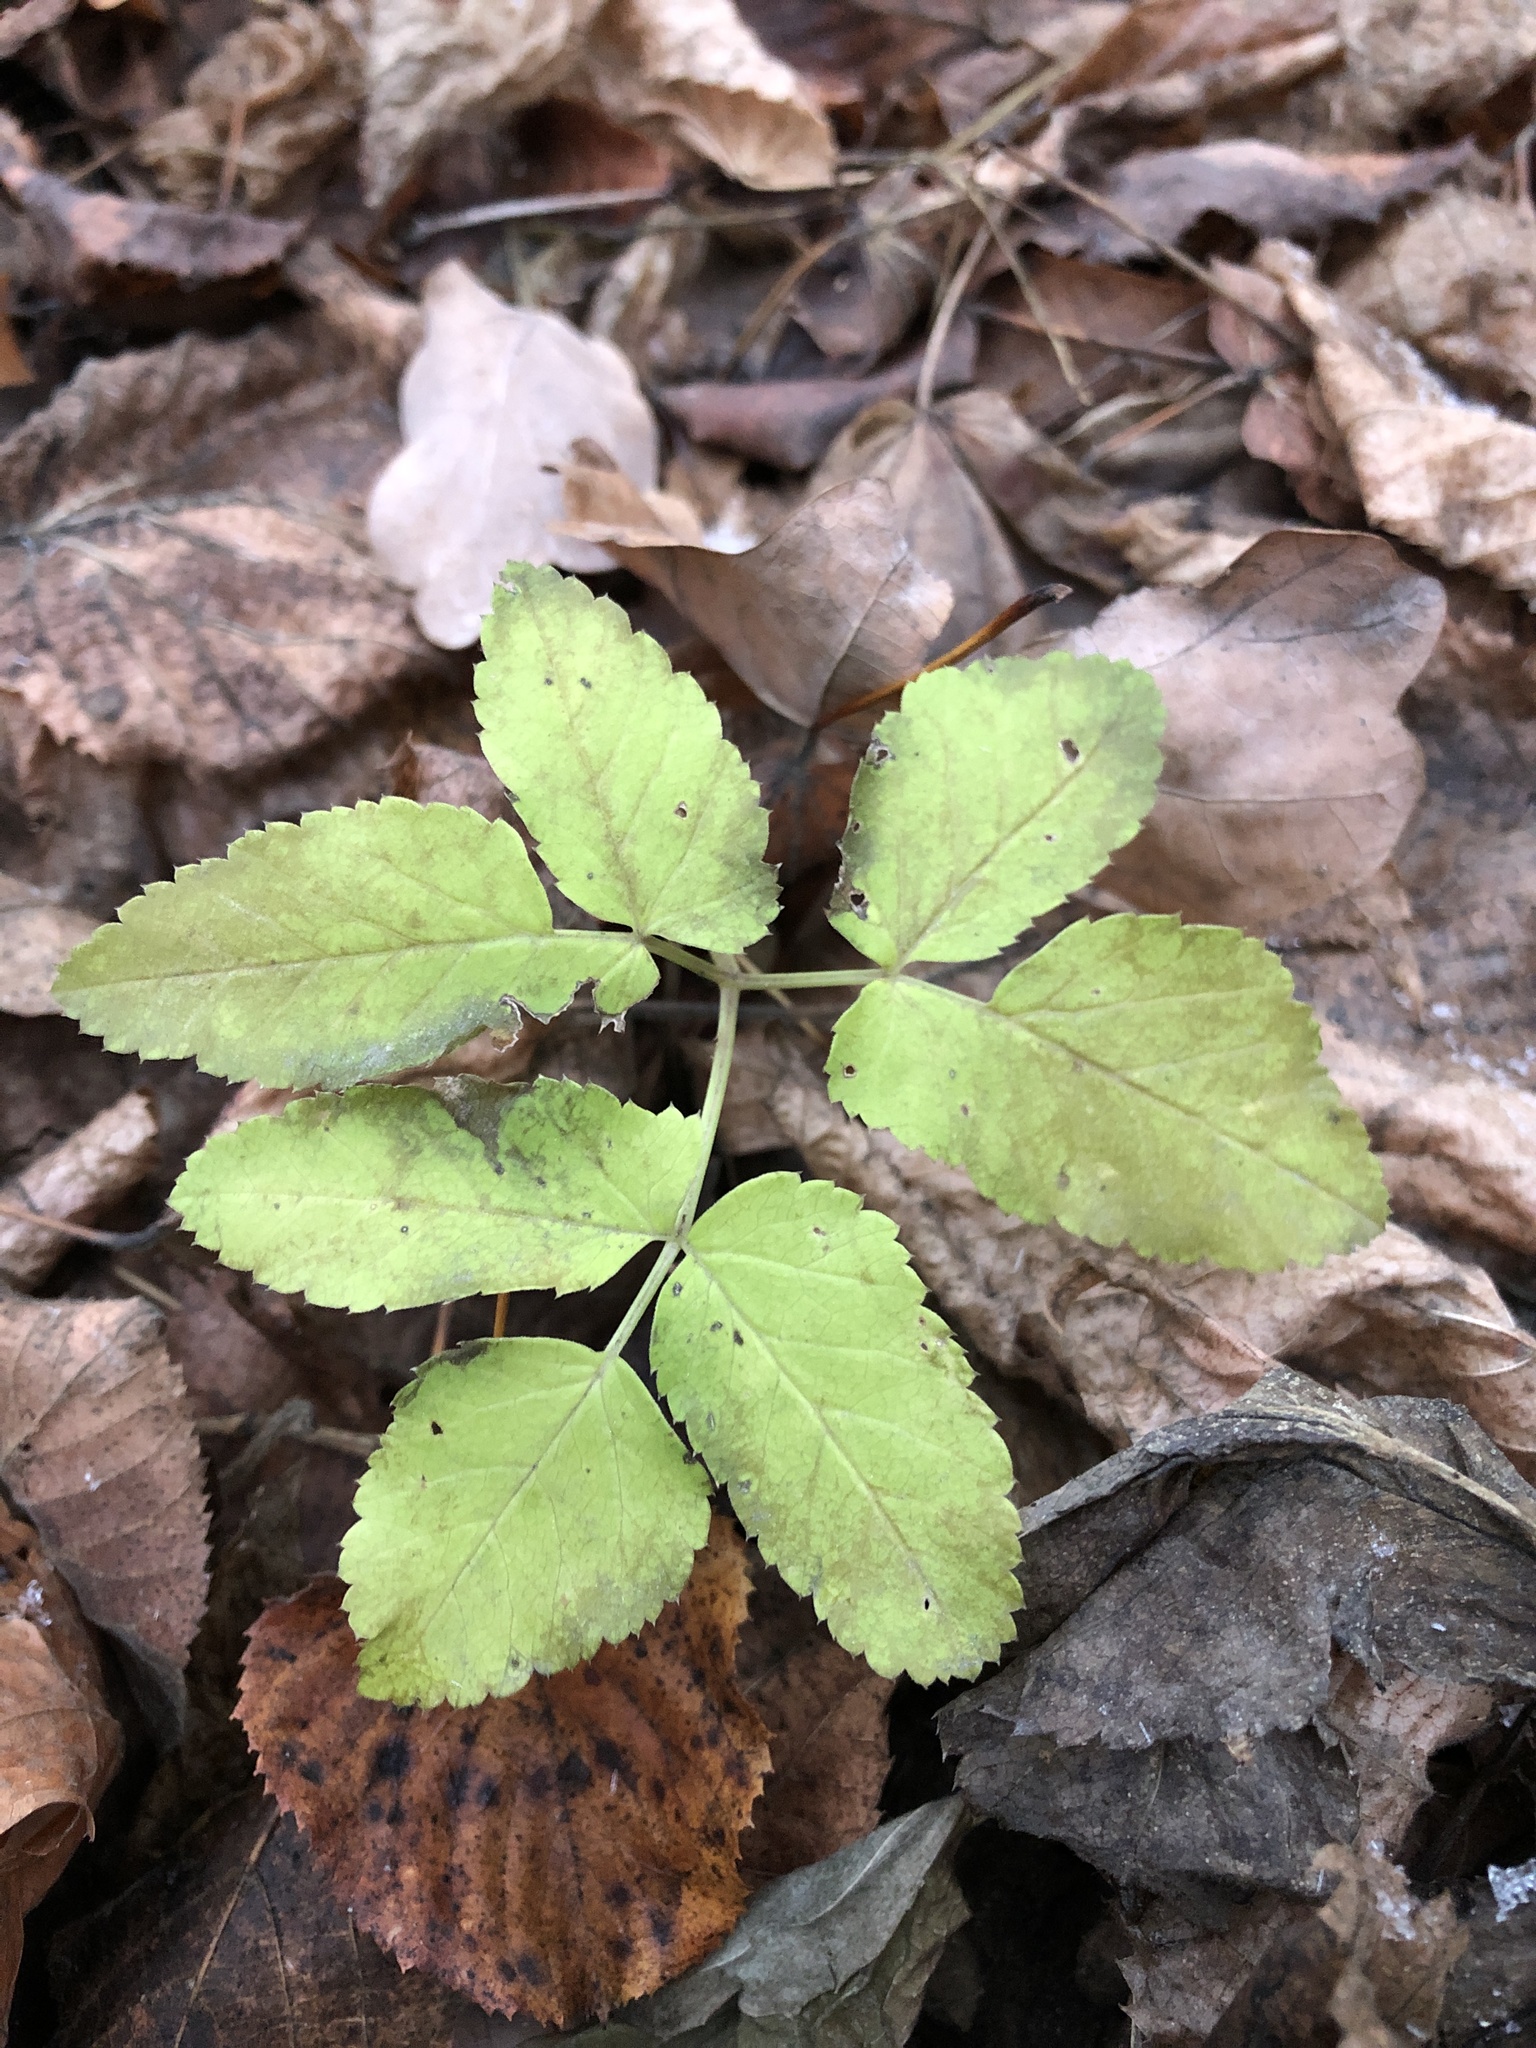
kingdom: Plantae
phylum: Tracheophyta
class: Magnoliopsida
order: Apiales
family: Apiaceae
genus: Aegopodium
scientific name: Aegopodium podagraria
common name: Ground-elder
